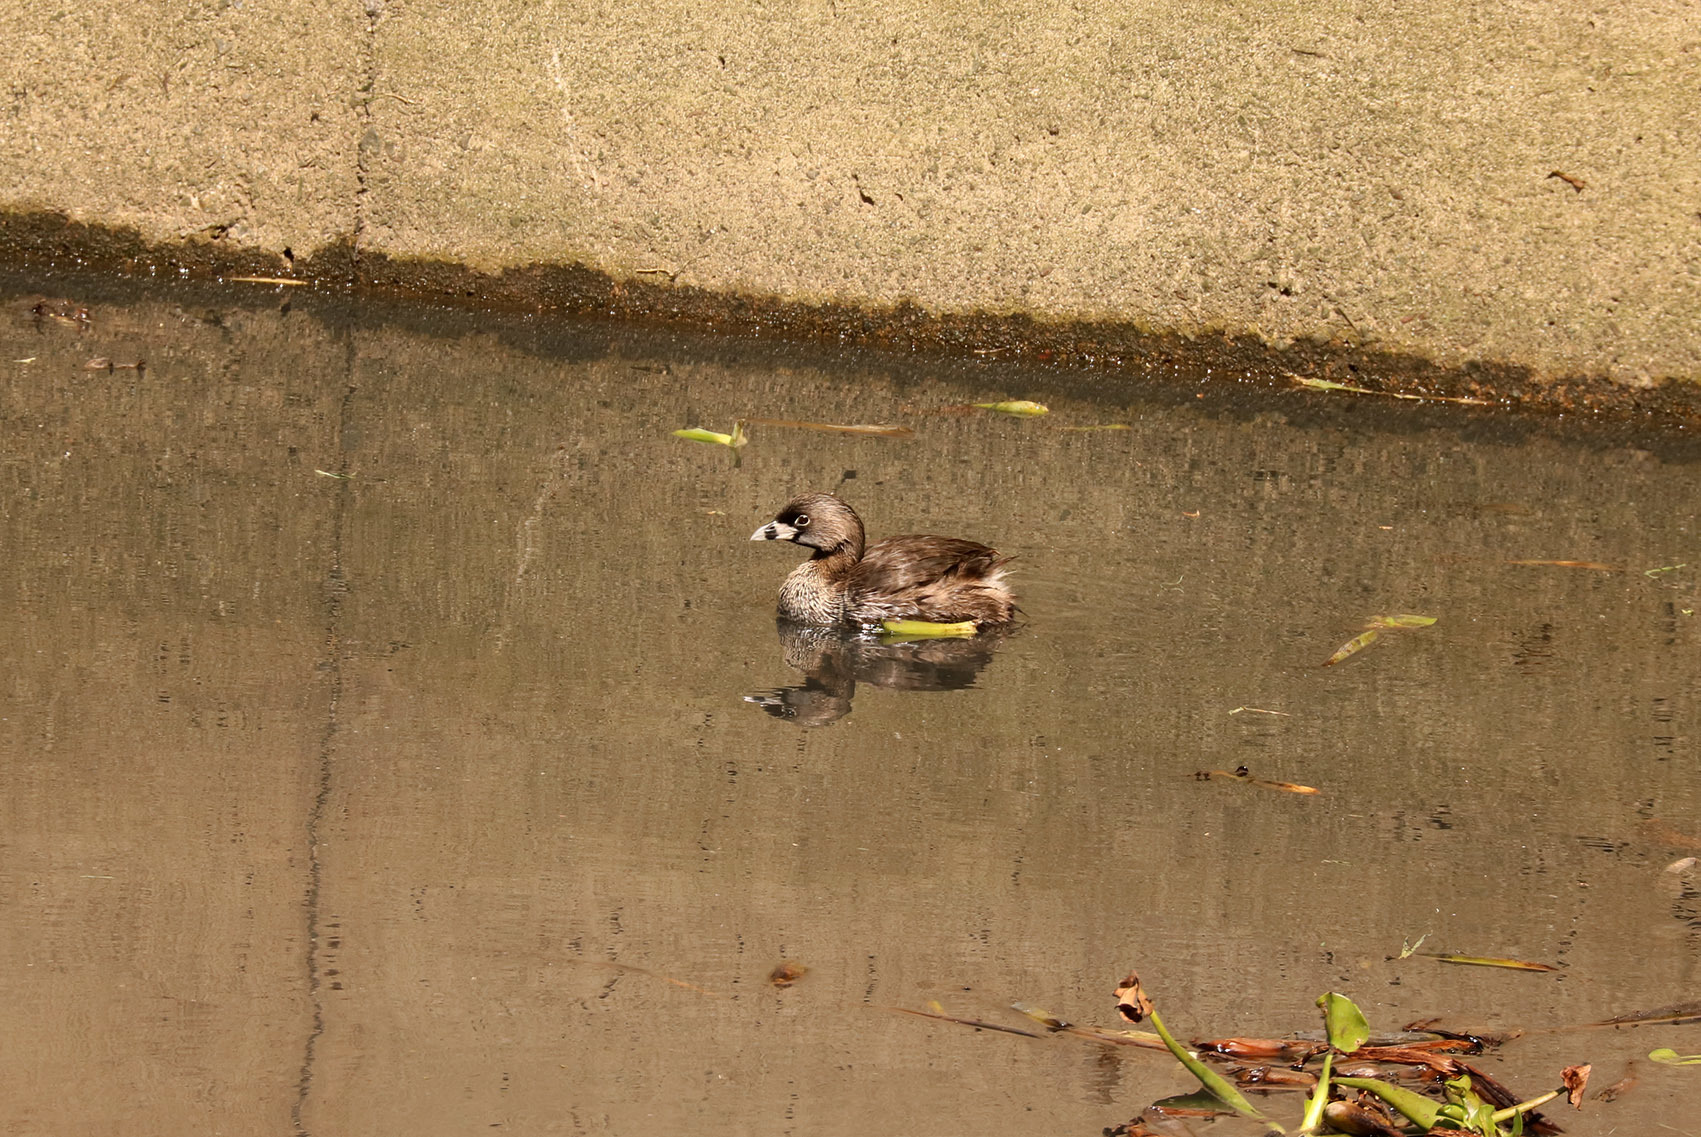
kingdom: Animalia
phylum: Chordata
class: Aves
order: Podicipediformes
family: Podicipedidae
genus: Podilymbus
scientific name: Podilymbus podiceps
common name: Pied-billed grebe
